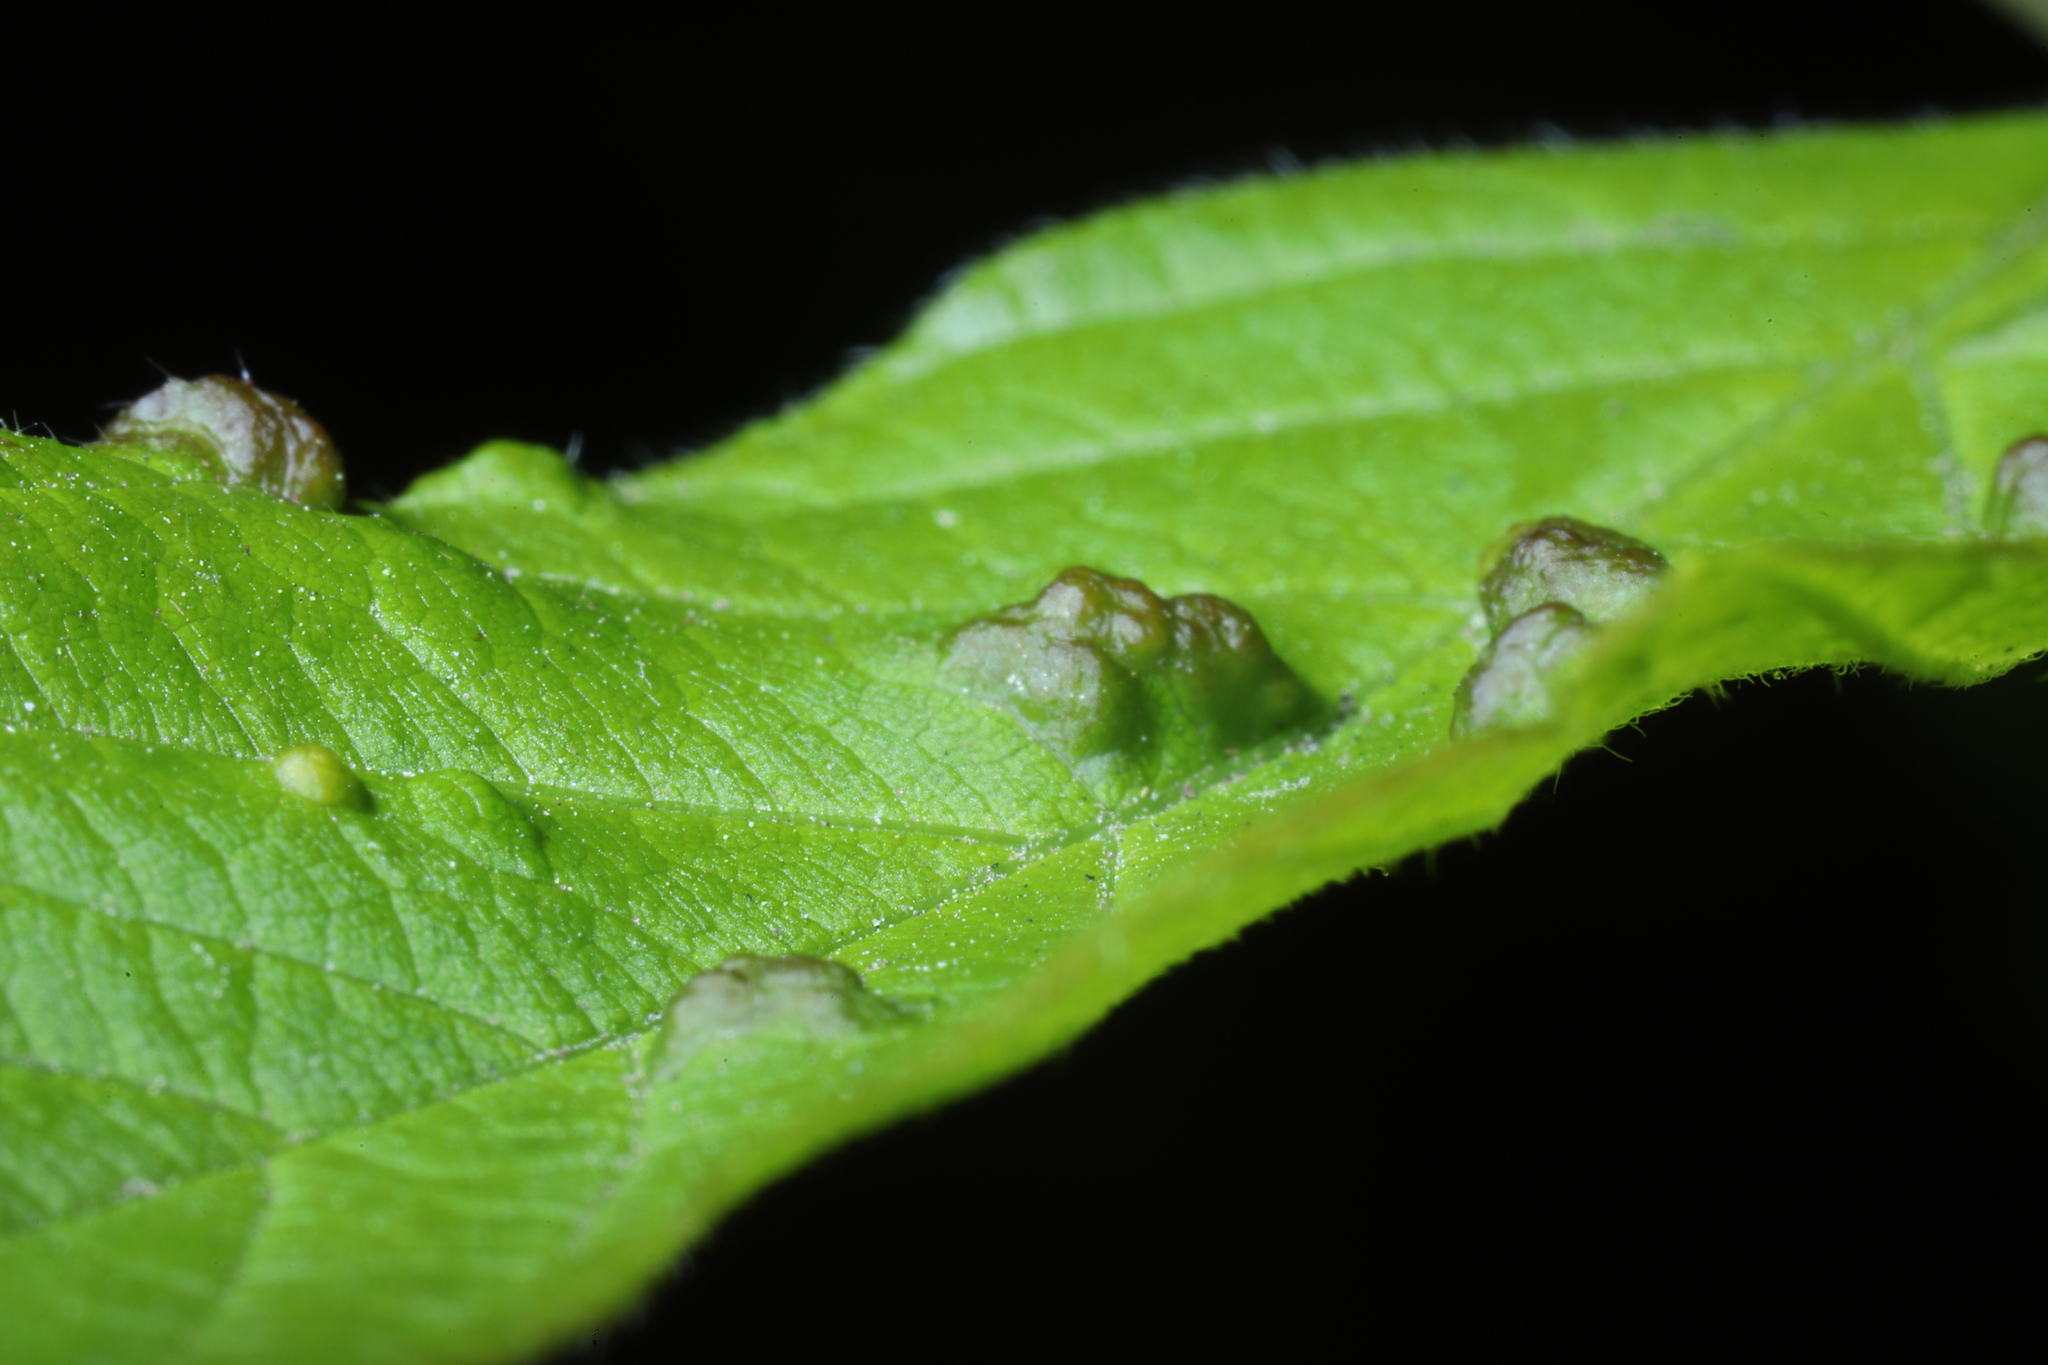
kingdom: Animalia
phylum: Arthropoda
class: Arachnida
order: Trombidiformes
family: Eriophyidae
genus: Aceria
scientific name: Aceria
